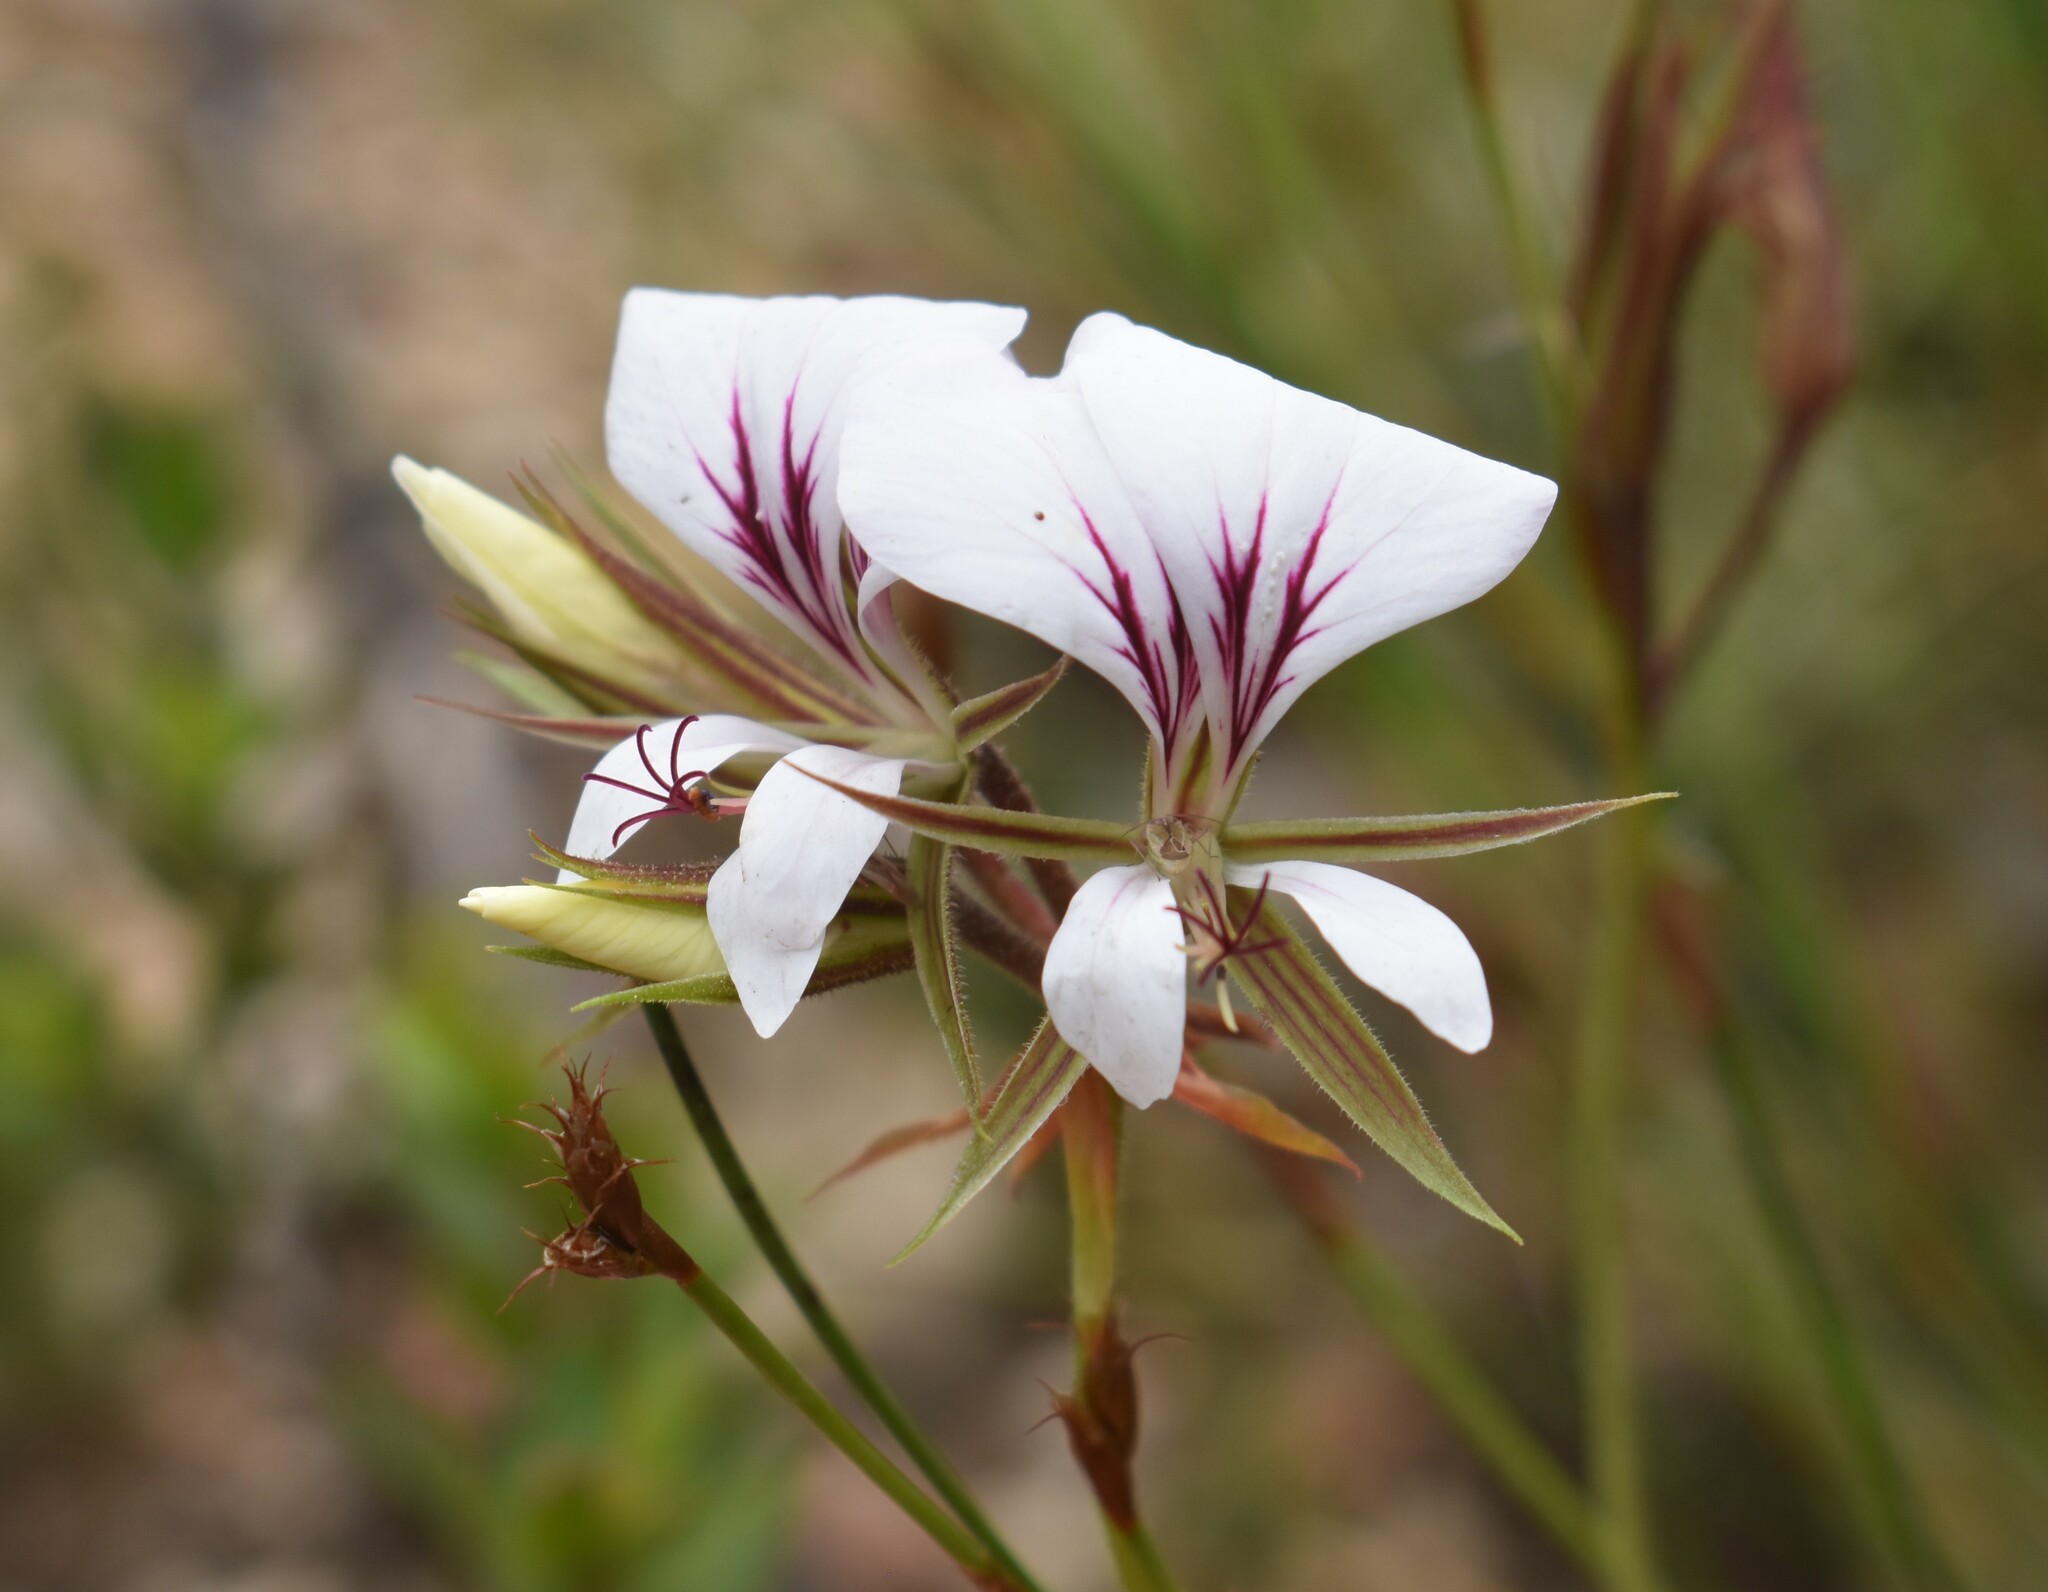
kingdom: Plantae
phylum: Tracheophyta
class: Magnoliopsida
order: Geraniales
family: Geraniaceae
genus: Pelargonium
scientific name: Pelargonium myrrhifolium
